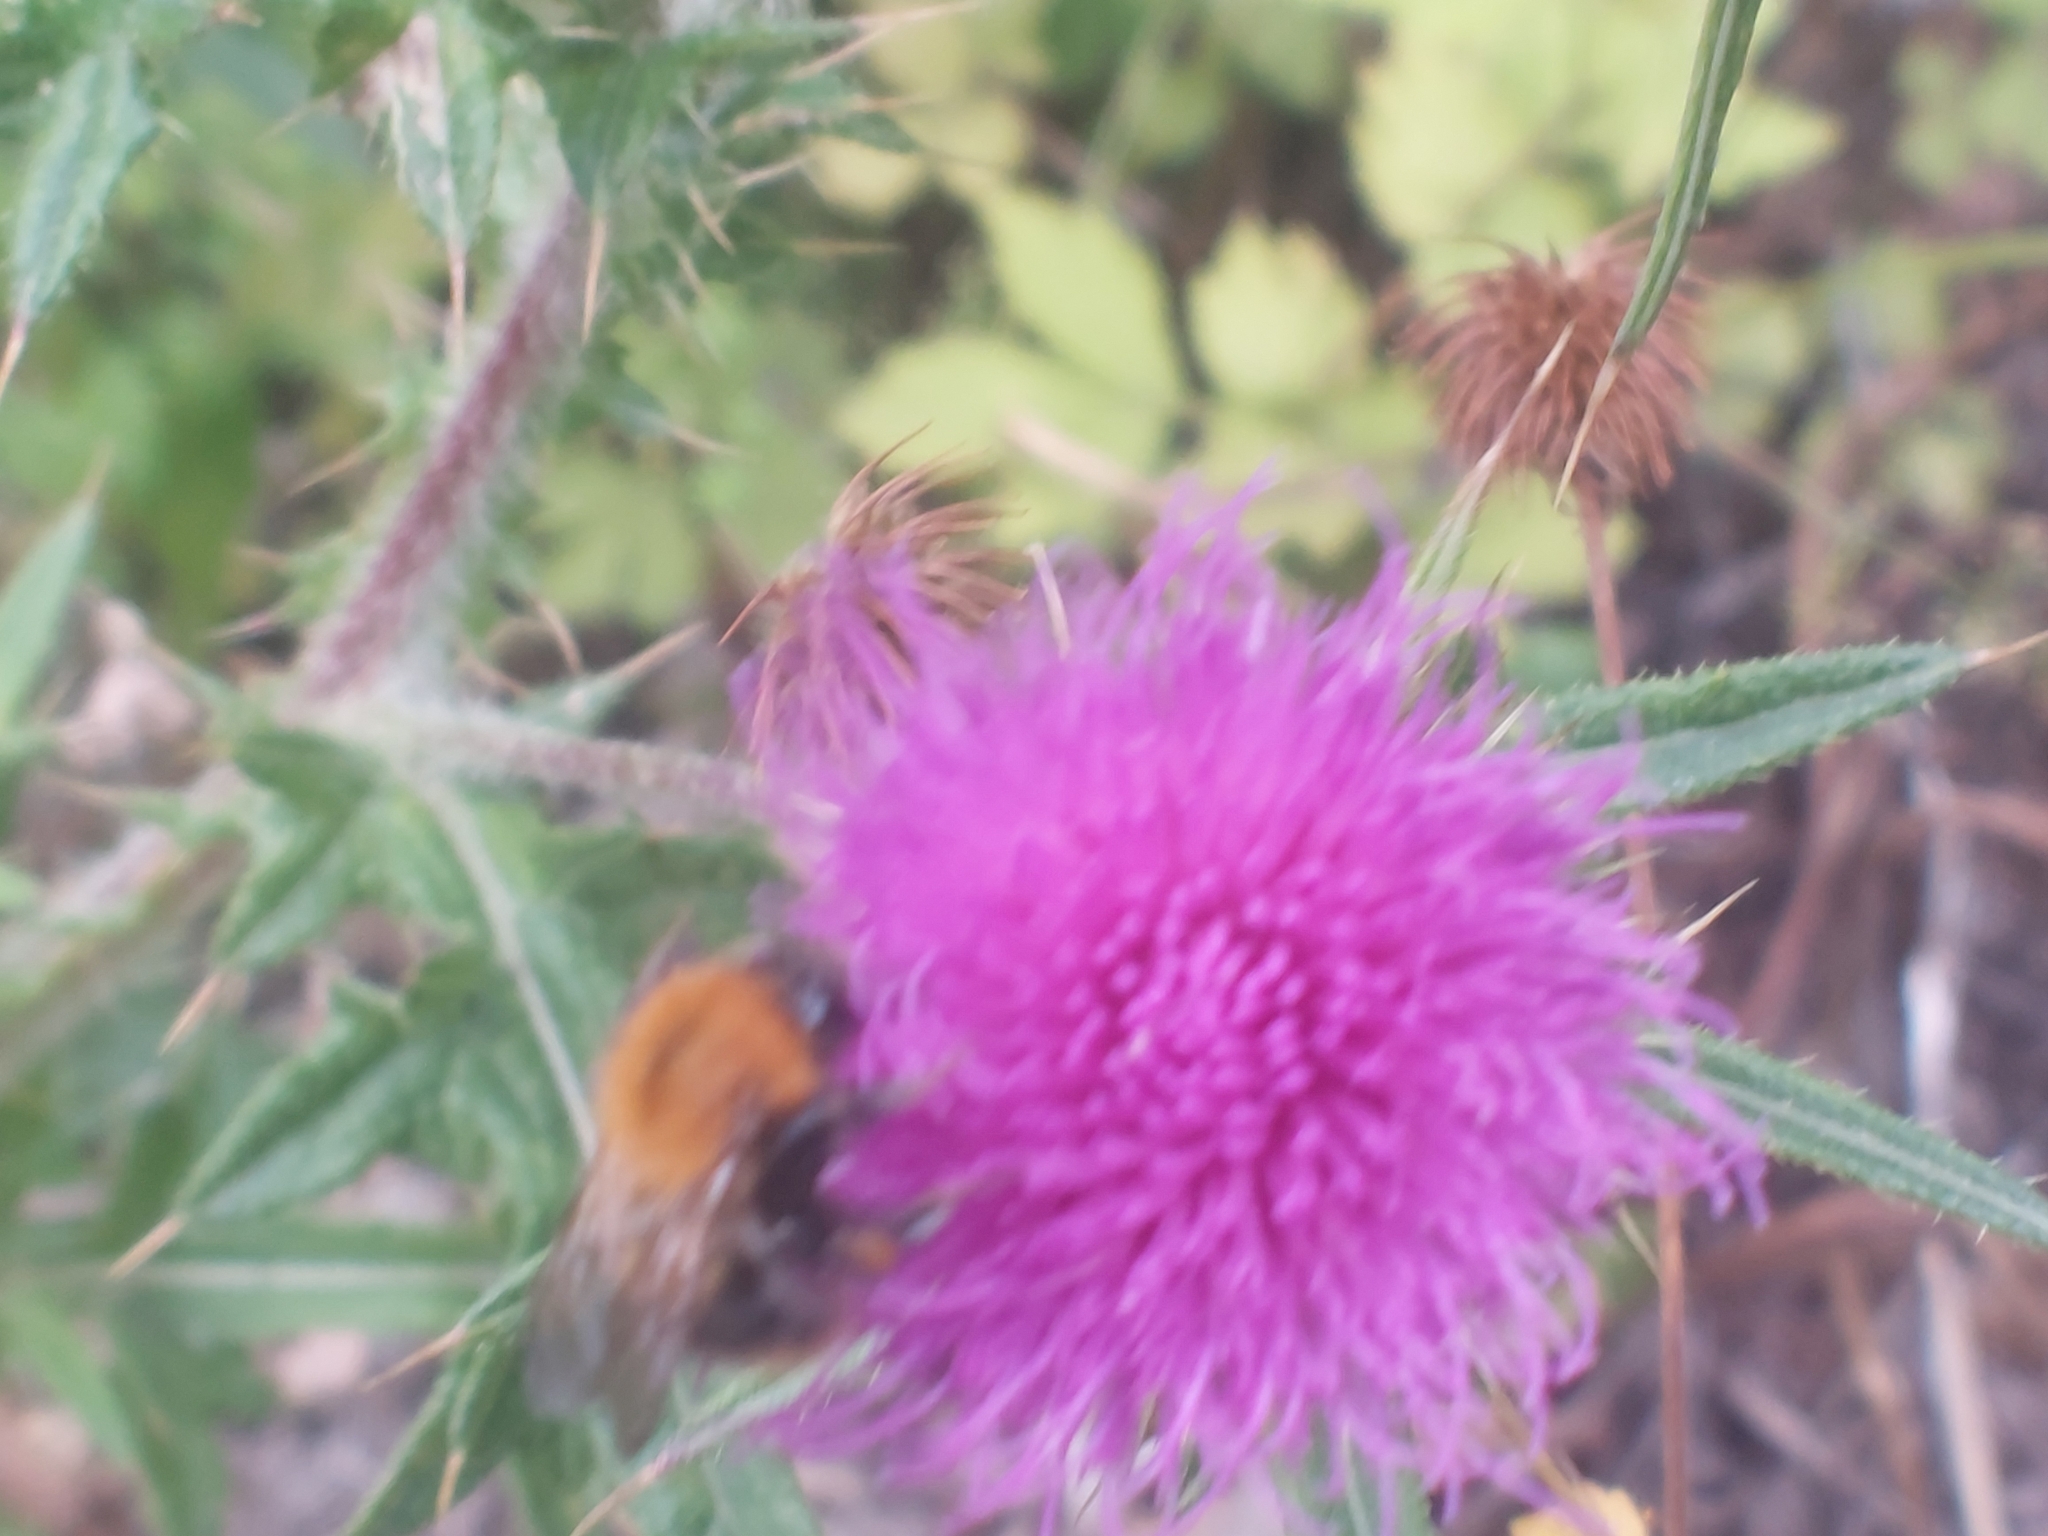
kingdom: Animalia
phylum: Arthropoda
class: Insecta
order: Hymenoptera
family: Apidae
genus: Bombus
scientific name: Bombus pascuorum
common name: Common carder bee
